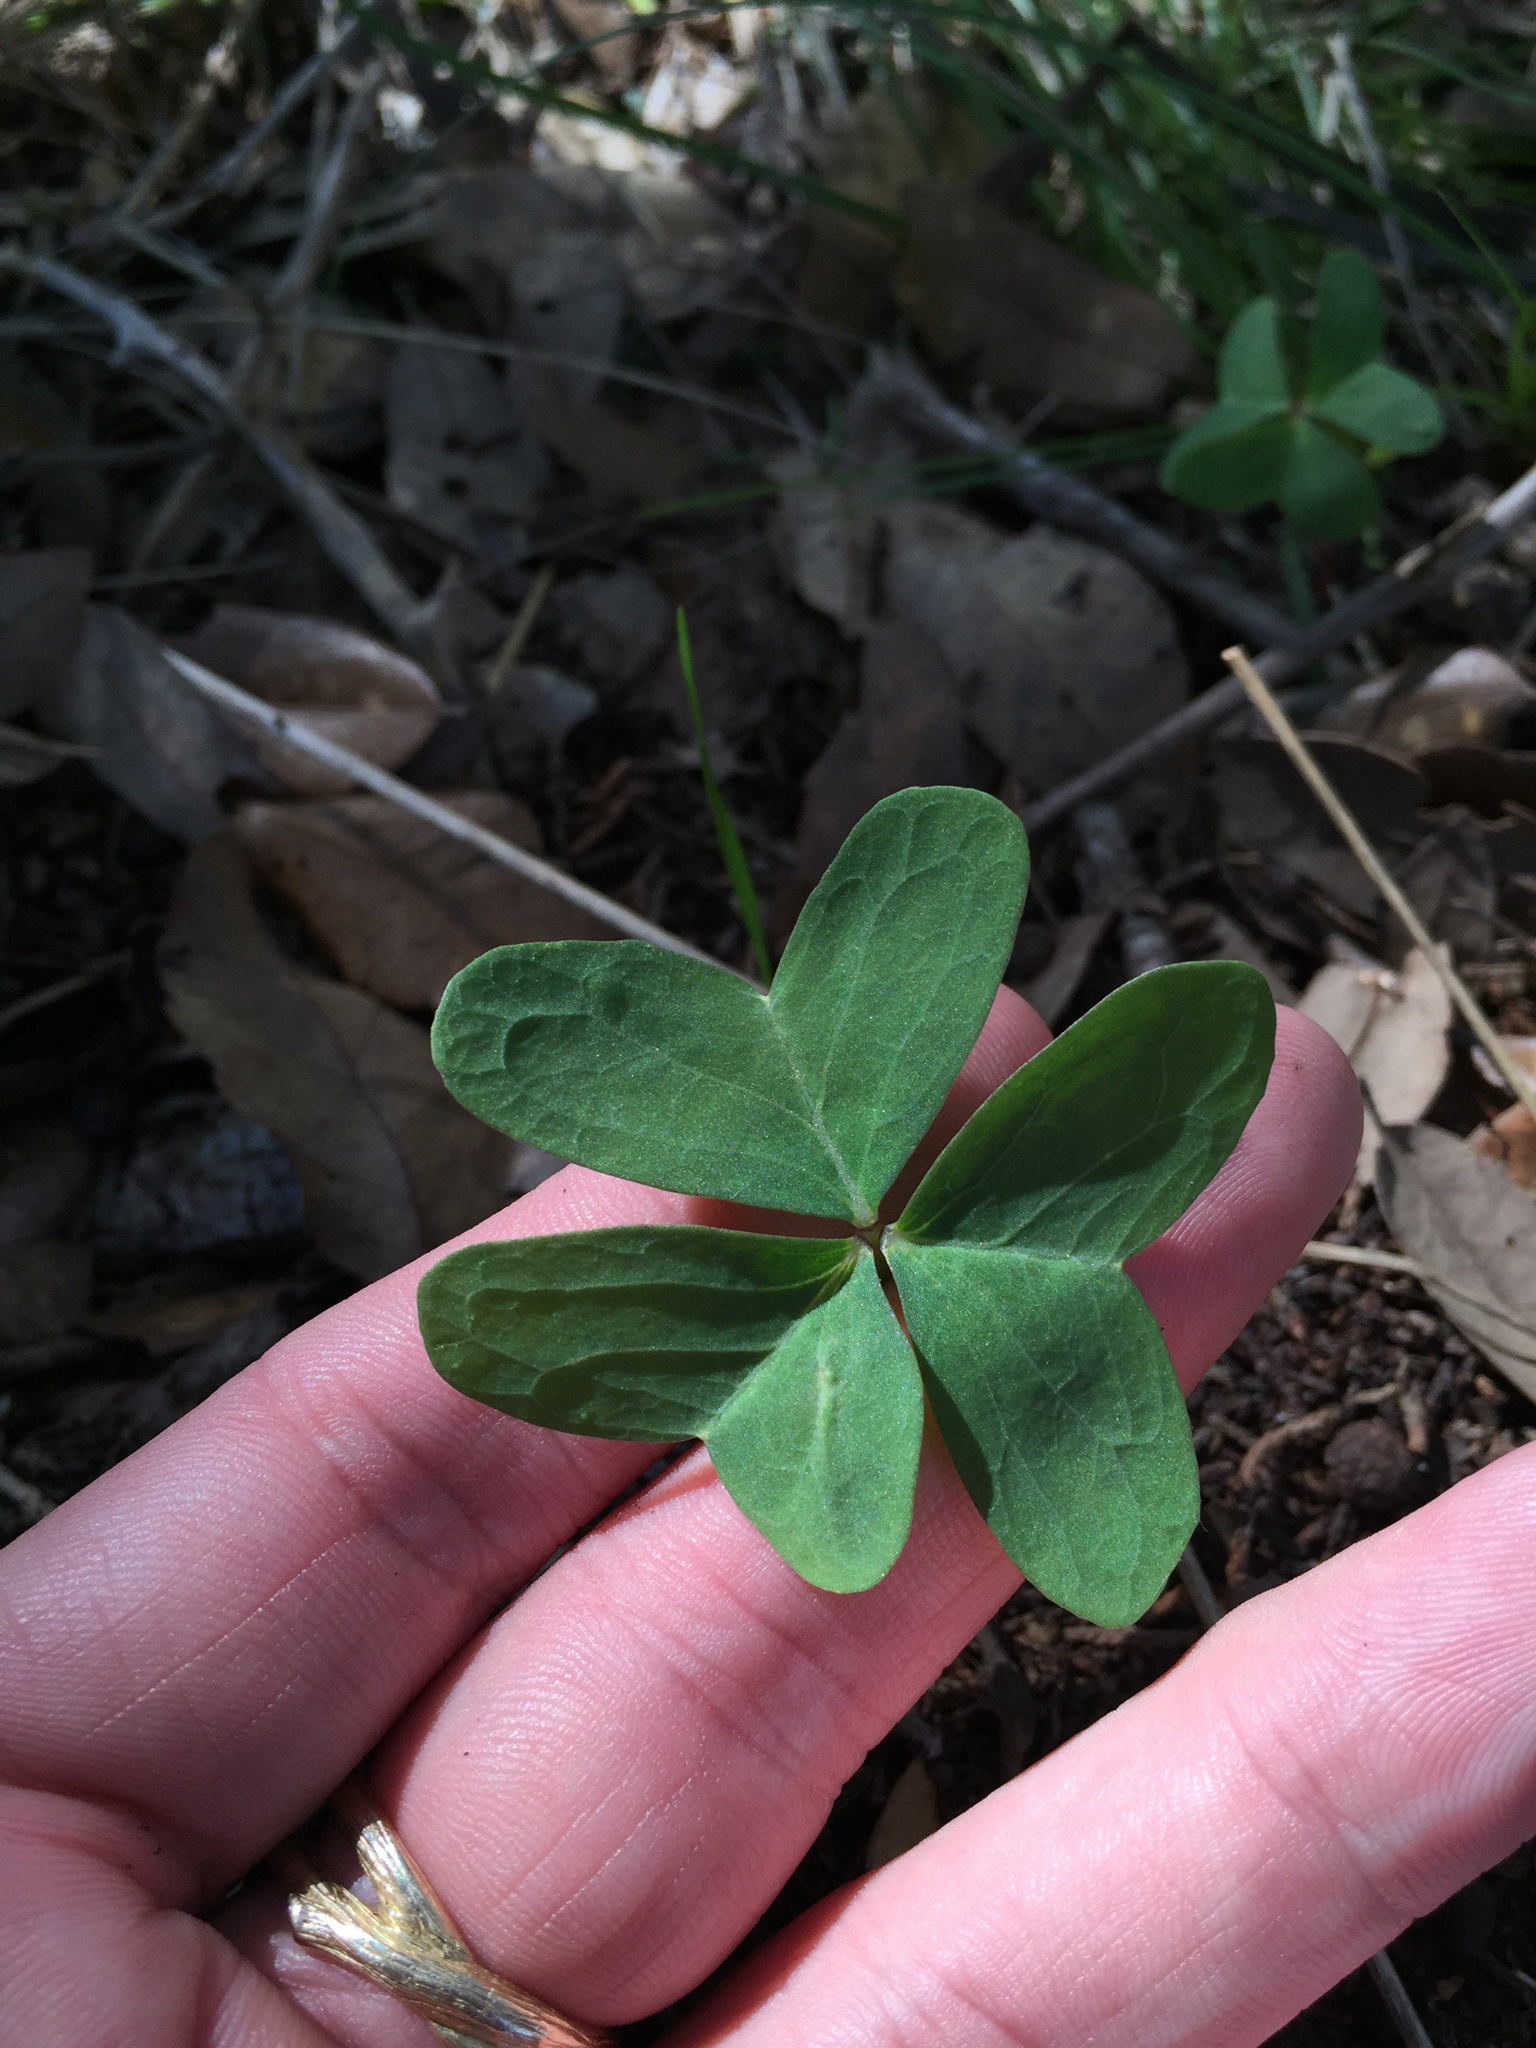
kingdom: Plantae
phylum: Tracheophyta
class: Magnoliopsida
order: Oxalidales
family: Oxalidaceae
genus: Oxalis
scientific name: Oxalis drummondii
